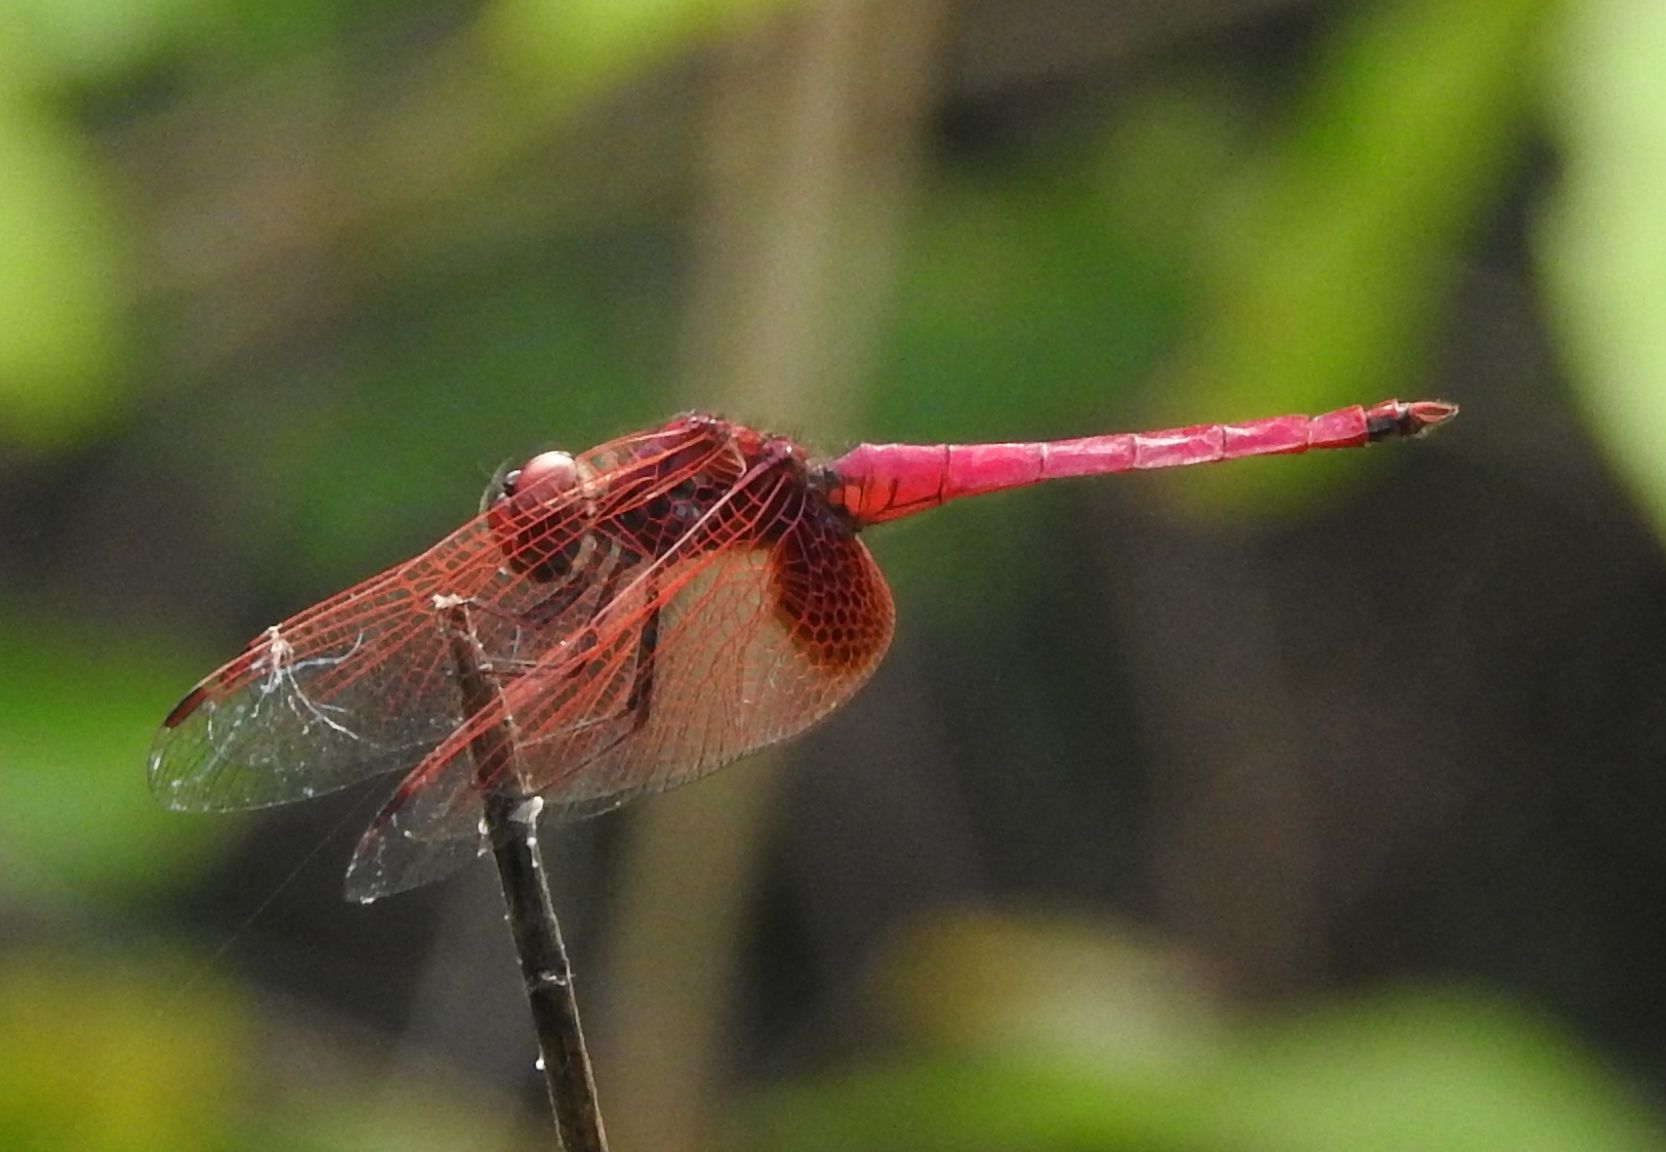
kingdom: Animalia
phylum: Arthropoda
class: Insecta
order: Odonata
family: Libellulidae
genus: Trithemis
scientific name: Trithemis aurora
